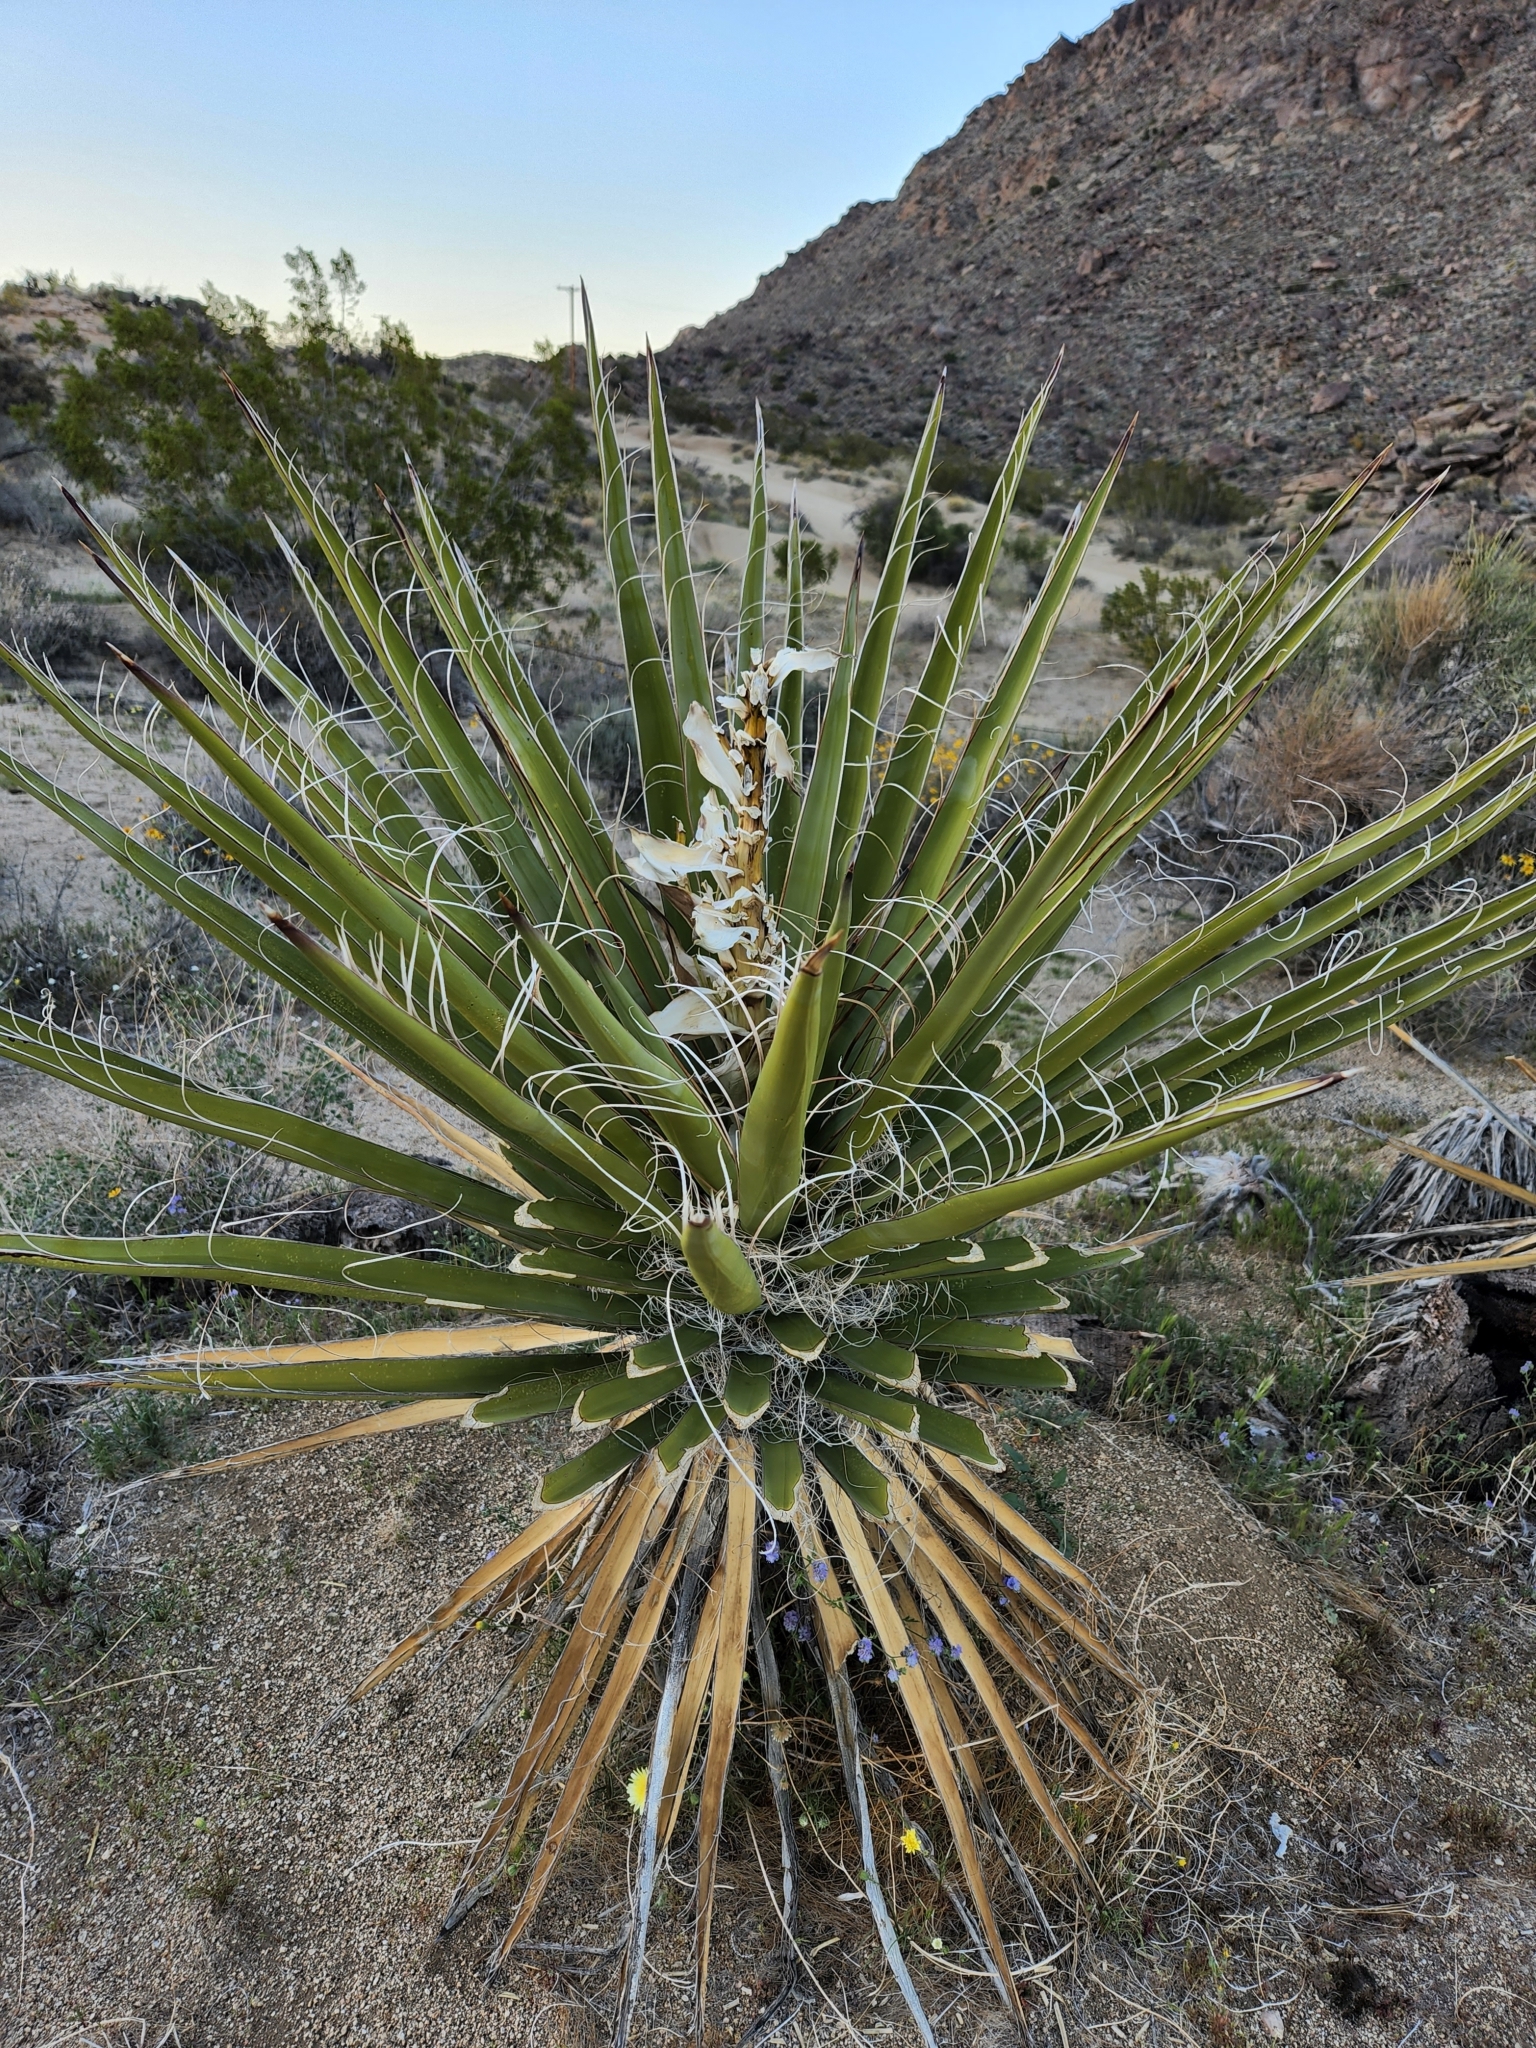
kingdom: Plantae
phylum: Tracheophyta
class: Liliopsida
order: Asparagales
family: Asparagaceae
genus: Yucca
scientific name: Yucca schidigera
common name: Mojave yucca
